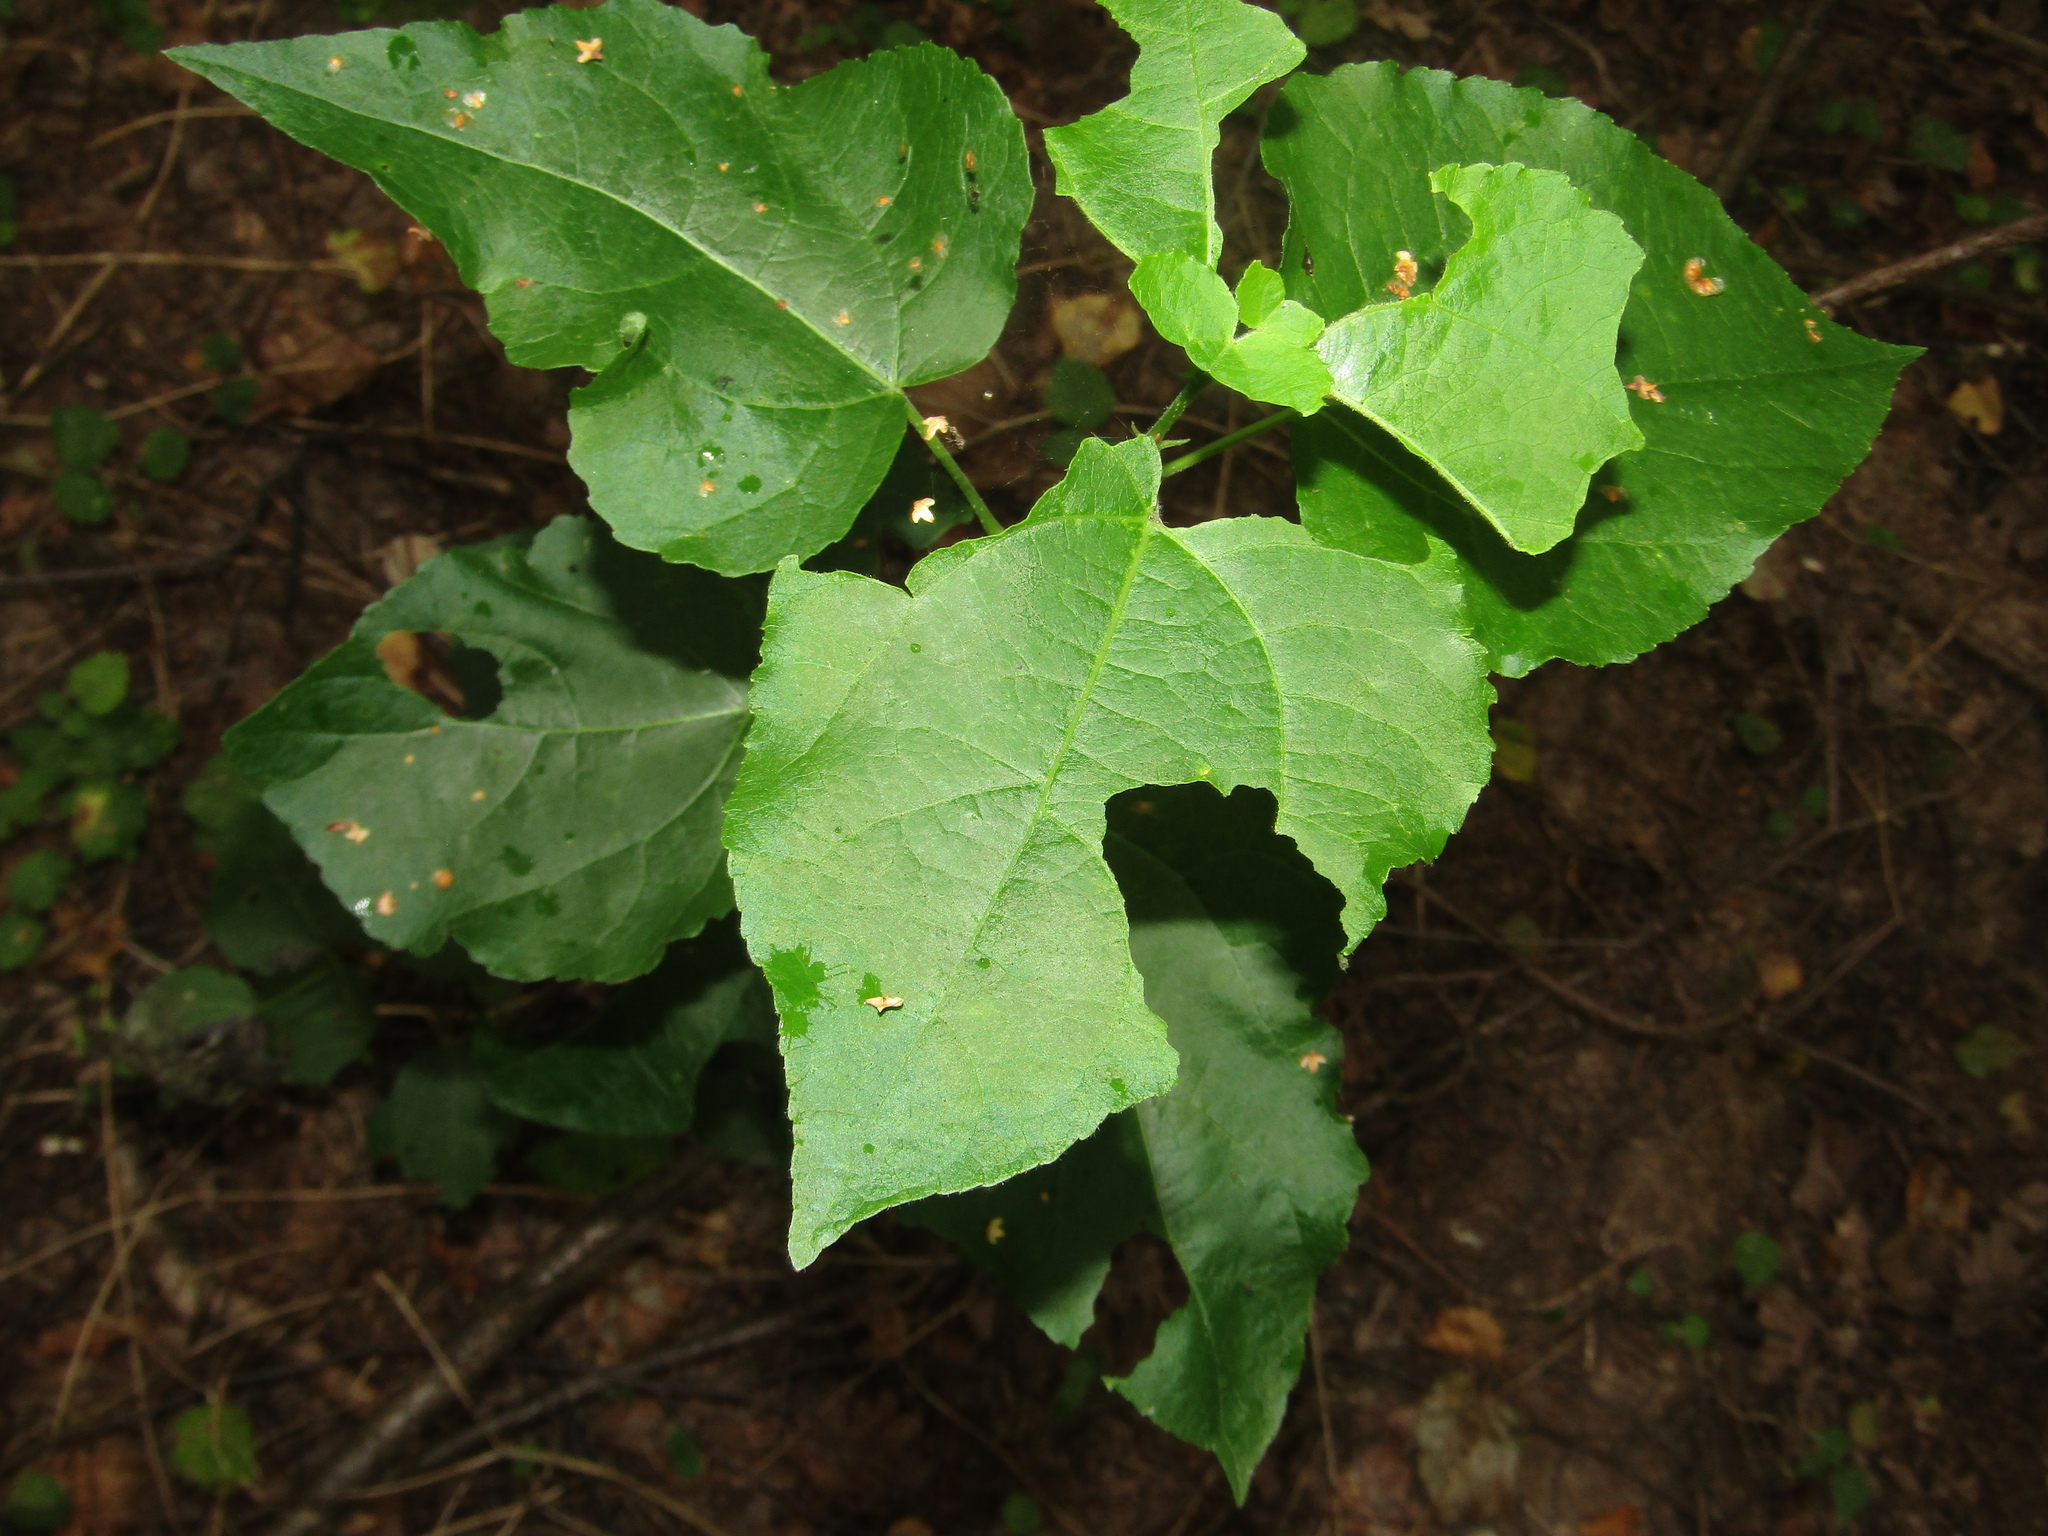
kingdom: Plantae
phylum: Tracheophyta
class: Magnoliopsida
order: Malpighiales
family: Salicaceae
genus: Populus
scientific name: Populus tremula
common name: European aspen
